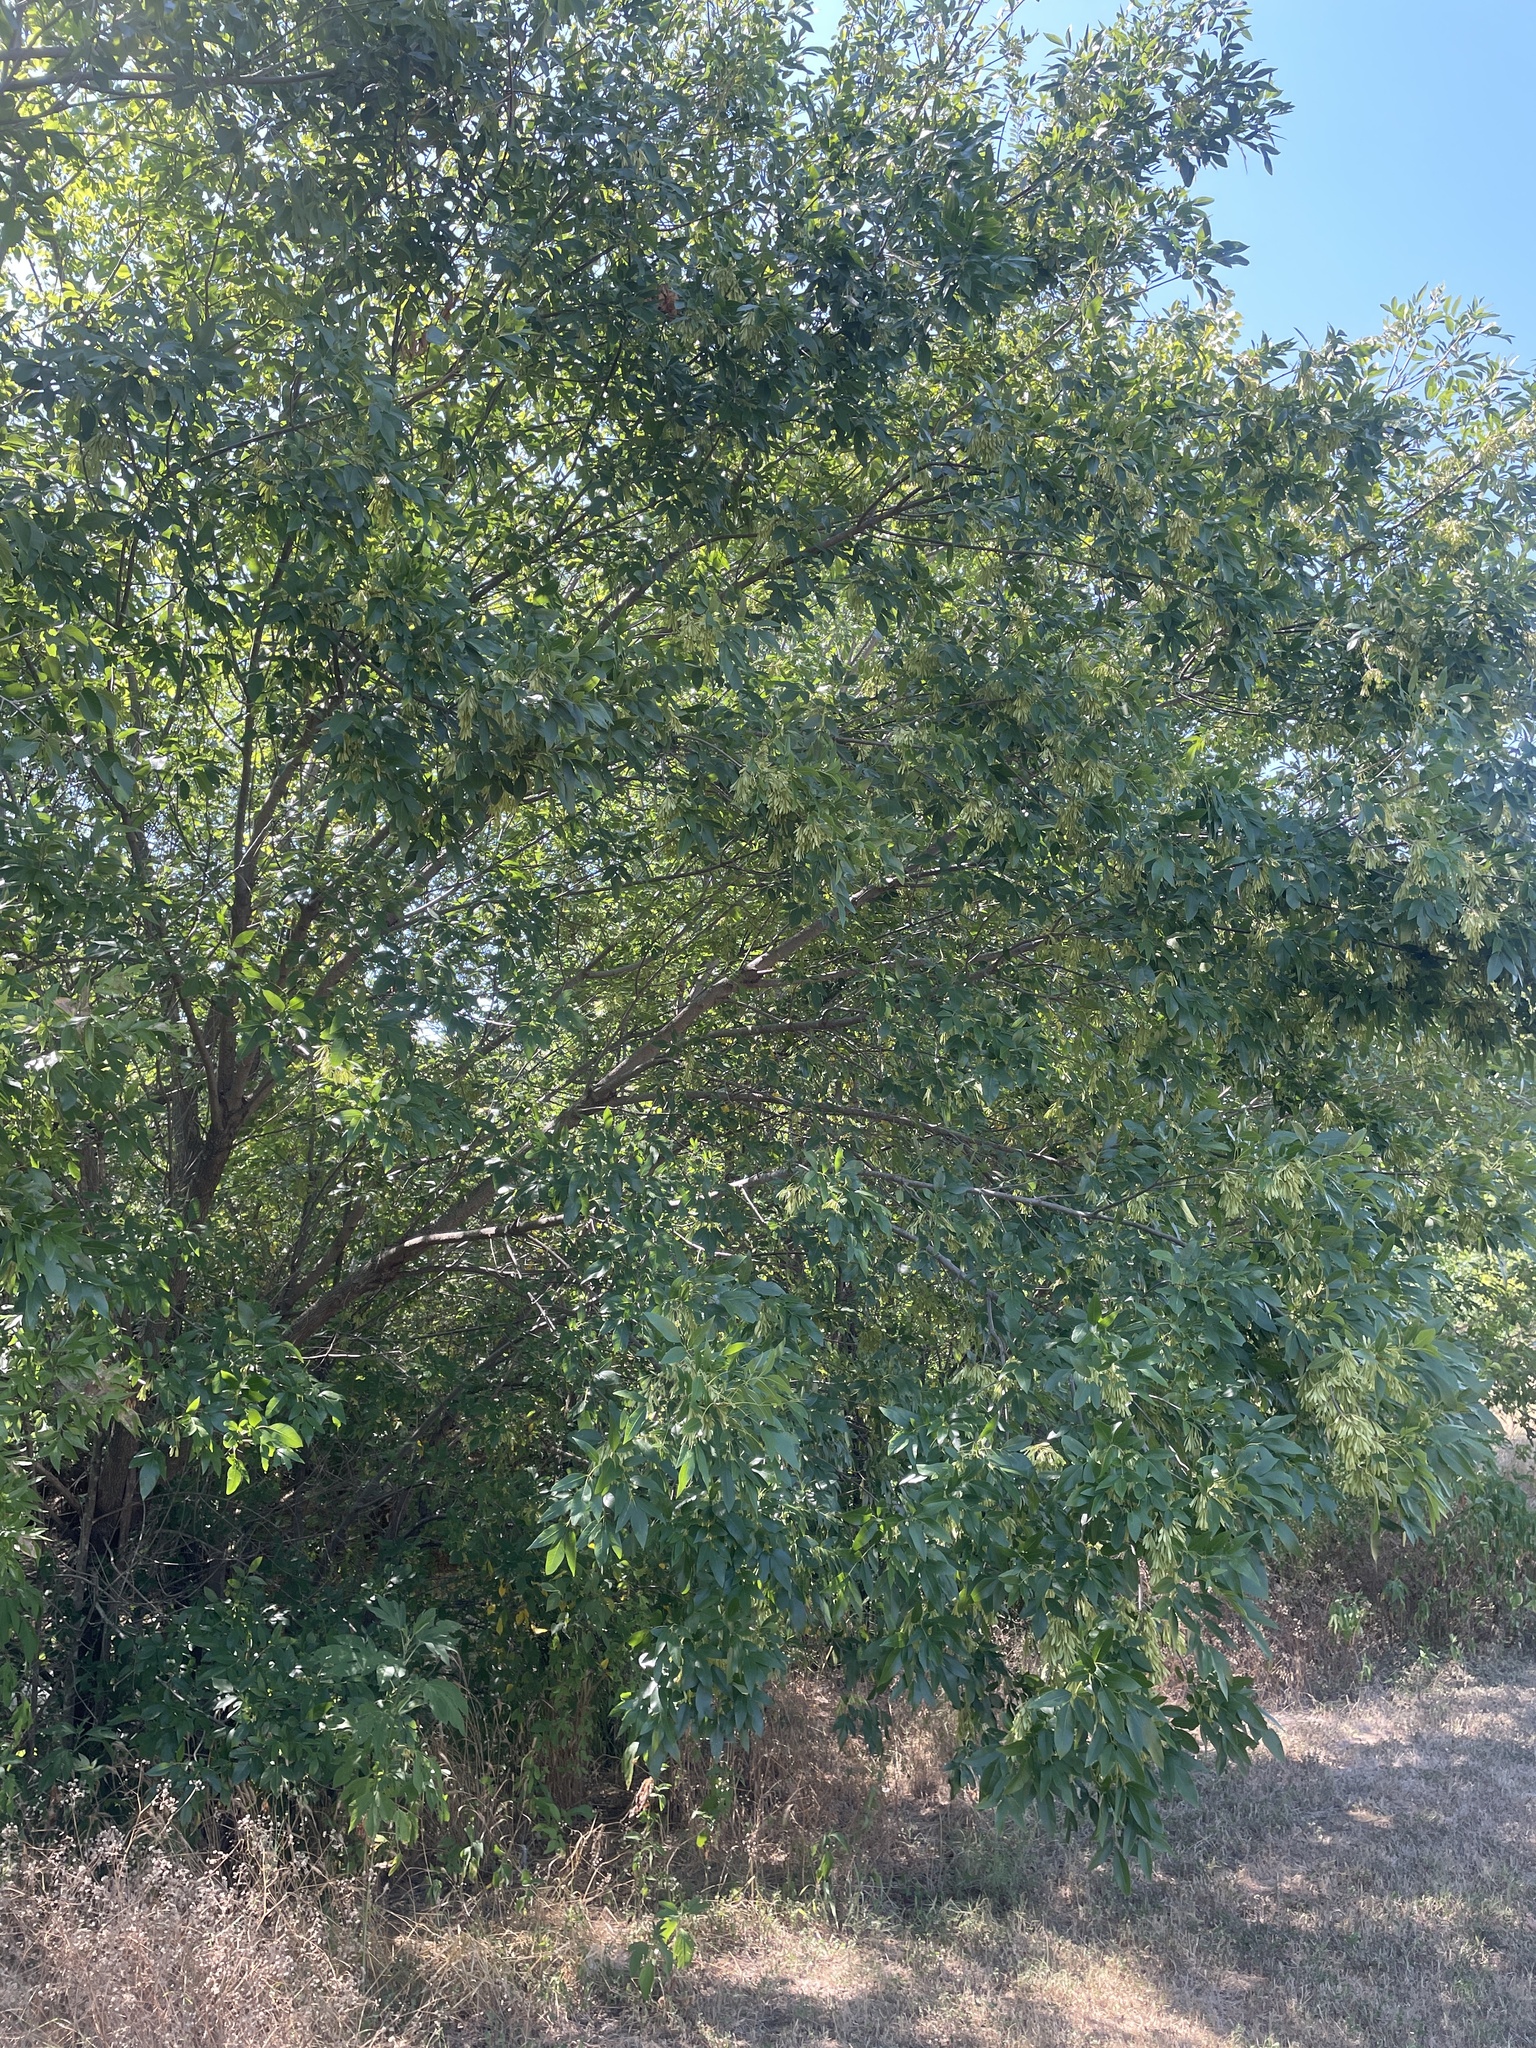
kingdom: Plantae
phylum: Tracheophyta
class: Magnoliopsida
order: Lamiales
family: Oleaceae
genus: Fraxinus
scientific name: Fraxinus pennsylvanica
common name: Green ash
